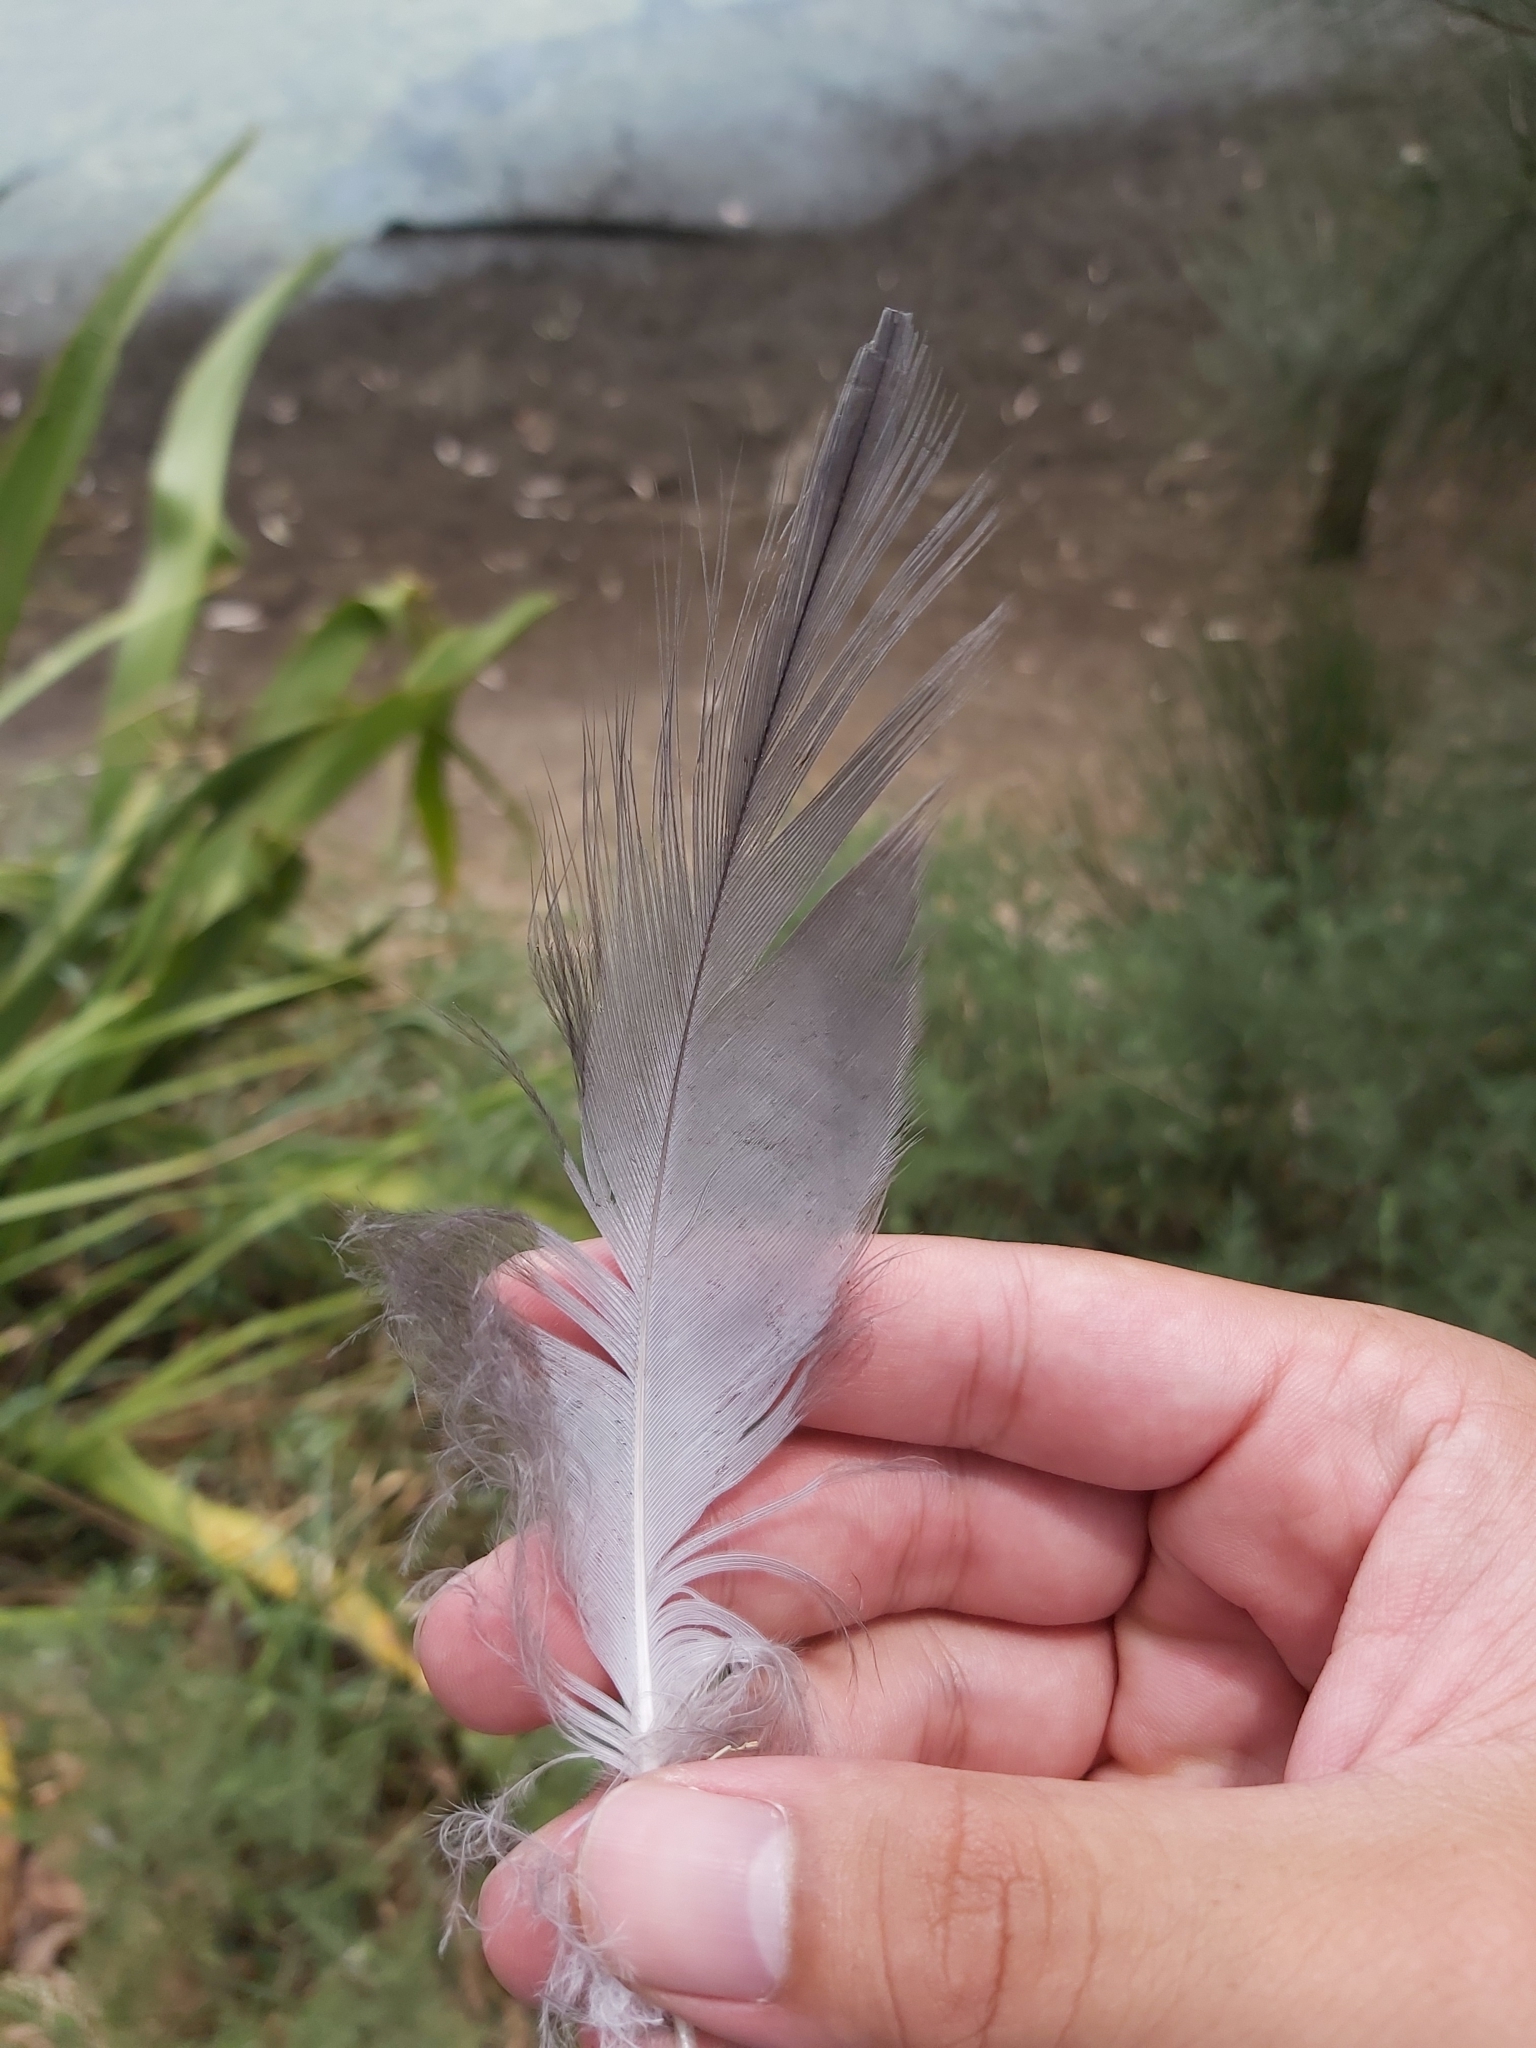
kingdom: Animalia
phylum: Chordata
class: Aves
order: Pelecaniformes
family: Ardeidae
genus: Egretta
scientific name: Egretta novaehollandiae
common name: White-faced heron
